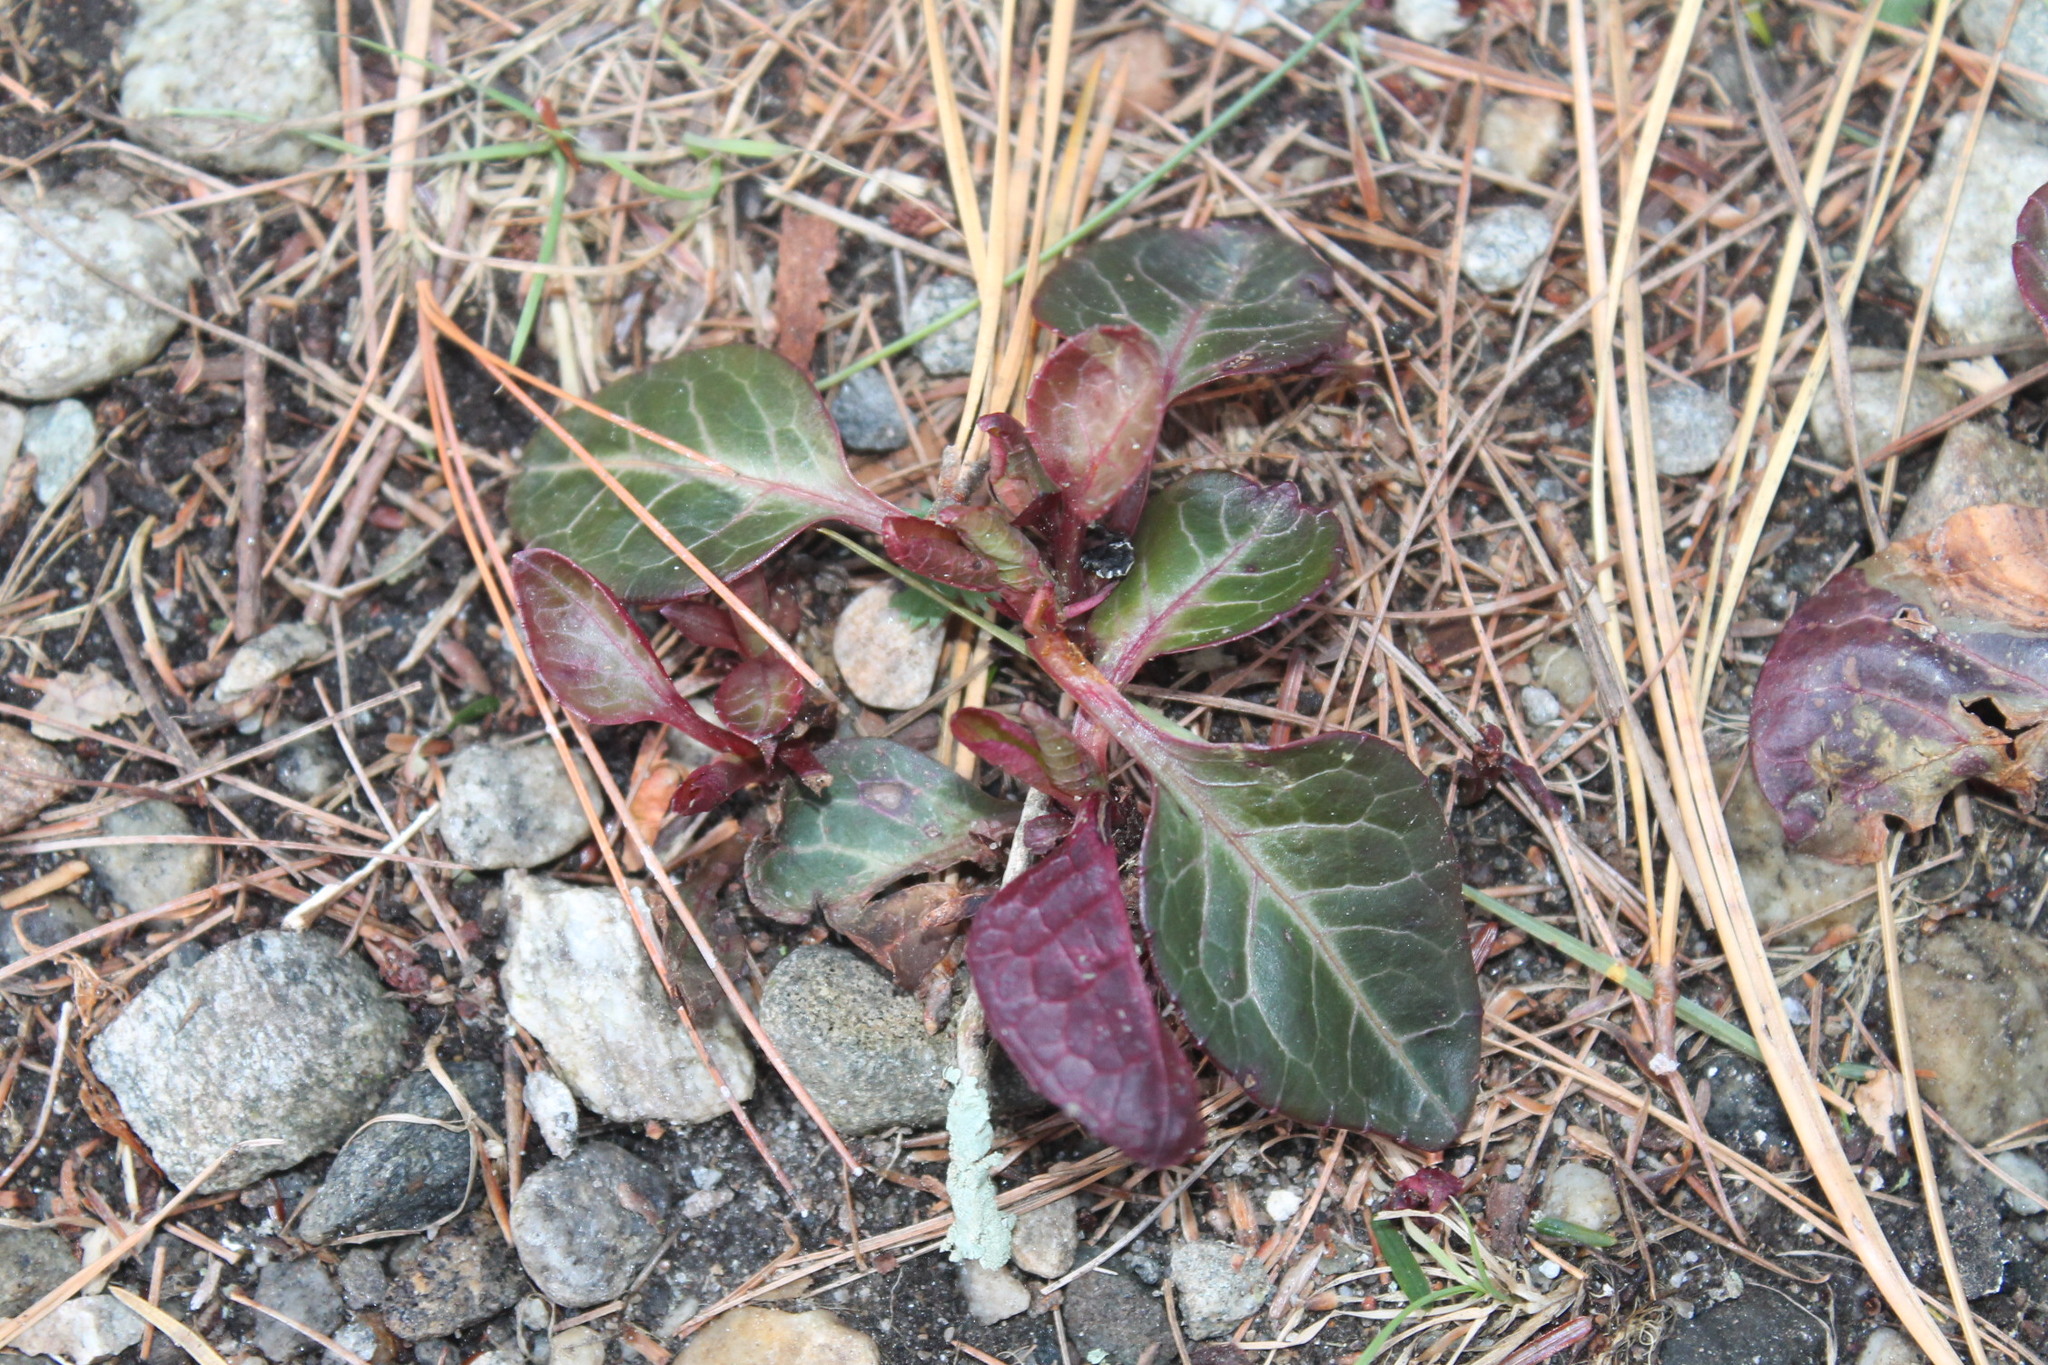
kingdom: Plantae
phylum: Tracheophyta
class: Magnoliopsida
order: Ericales
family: Ericaceae
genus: Pyrola
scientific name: Pyrola americana
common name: American wintergreen
